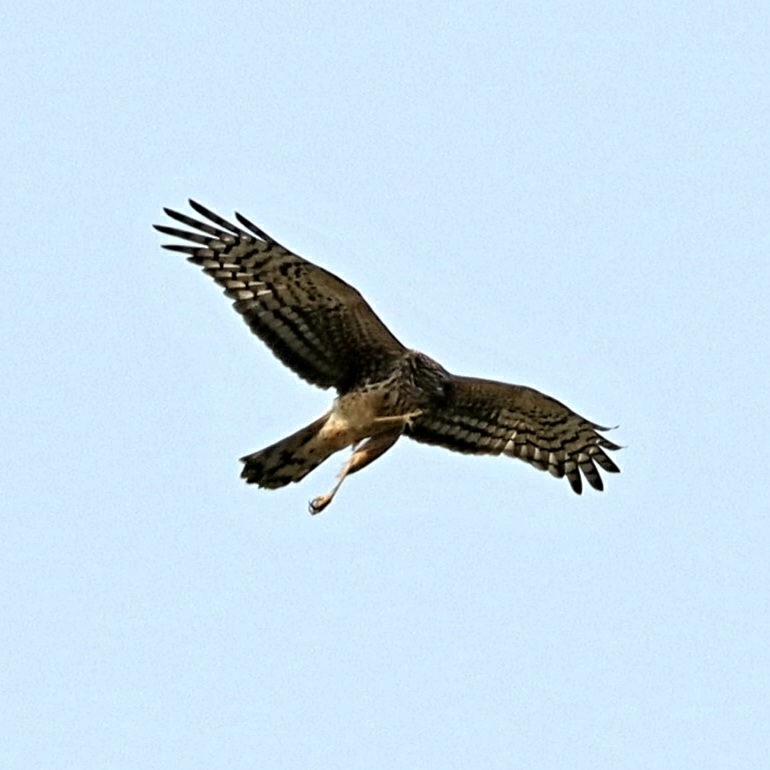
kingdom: Animalia
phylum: Chordata
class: Aves
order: Accipitriformes
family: Accipitridae
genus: Circus
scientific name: Circus cyaneus
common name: Hen harrier
